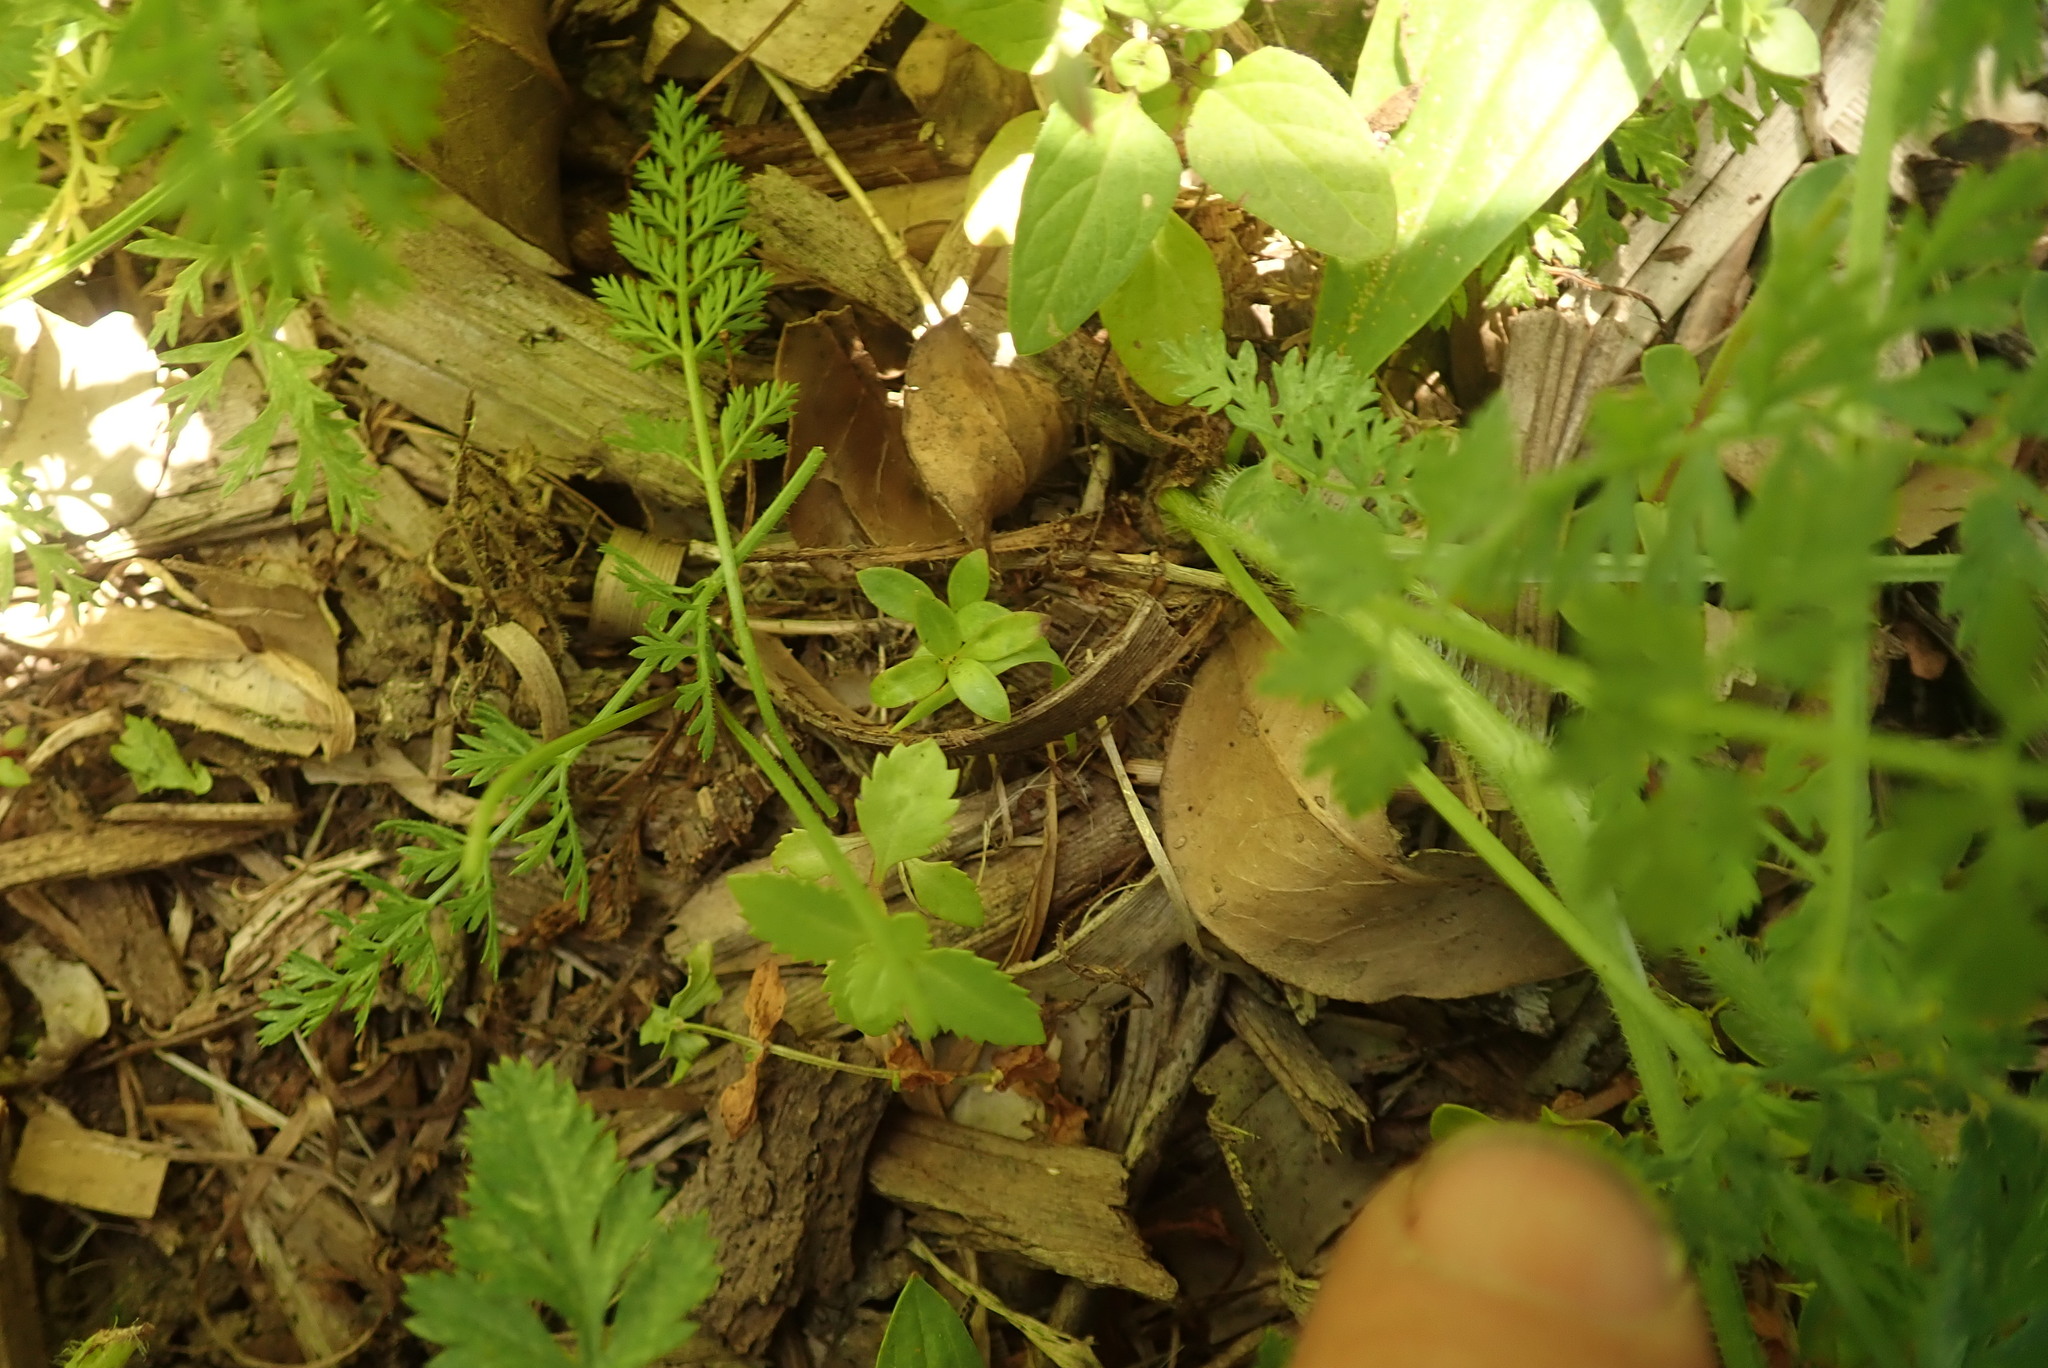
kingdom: Plantae
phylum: Tracheophyta
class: Magnoliopsida
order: Saxifragales
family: Haloragaceae
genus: Haloragis
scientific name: Haloragis erecta
